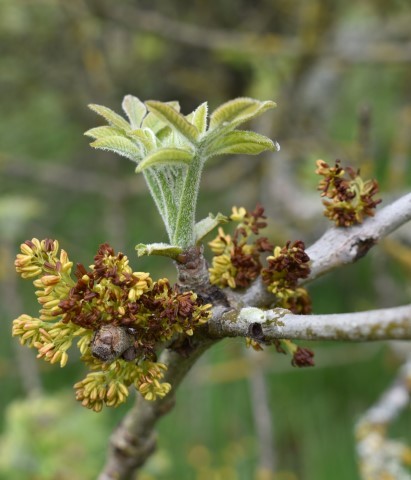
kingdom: Plantae
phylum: Tracheophyta
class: Magnoliopsida
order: Lamiales
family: Oleaceae
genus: Fraxinus
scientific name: Fraxinus latifolia
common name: Oregon ash
